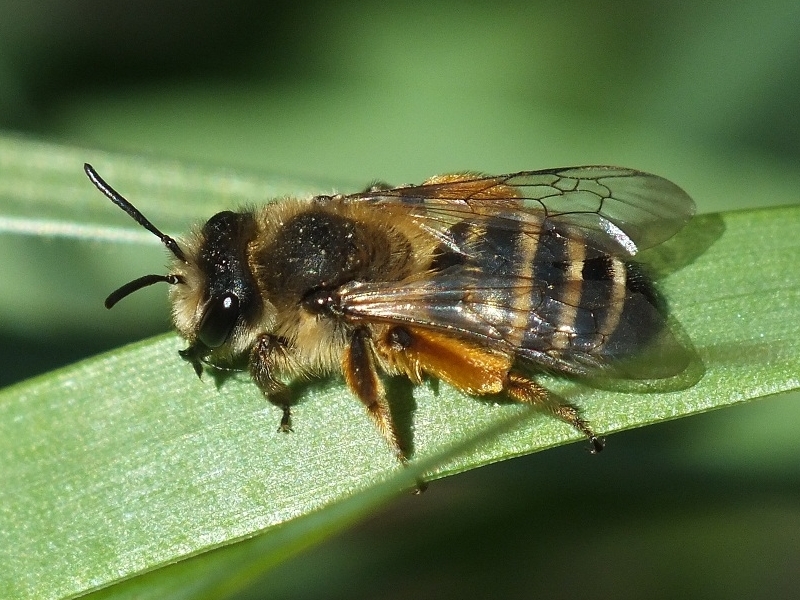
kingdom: Animalia
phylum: Arthropoda
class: Insecta
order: Hymenoptera
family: Andrenidae
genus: Andrena
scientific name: Andrena flavipes
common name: Yellow-legged mining bee
